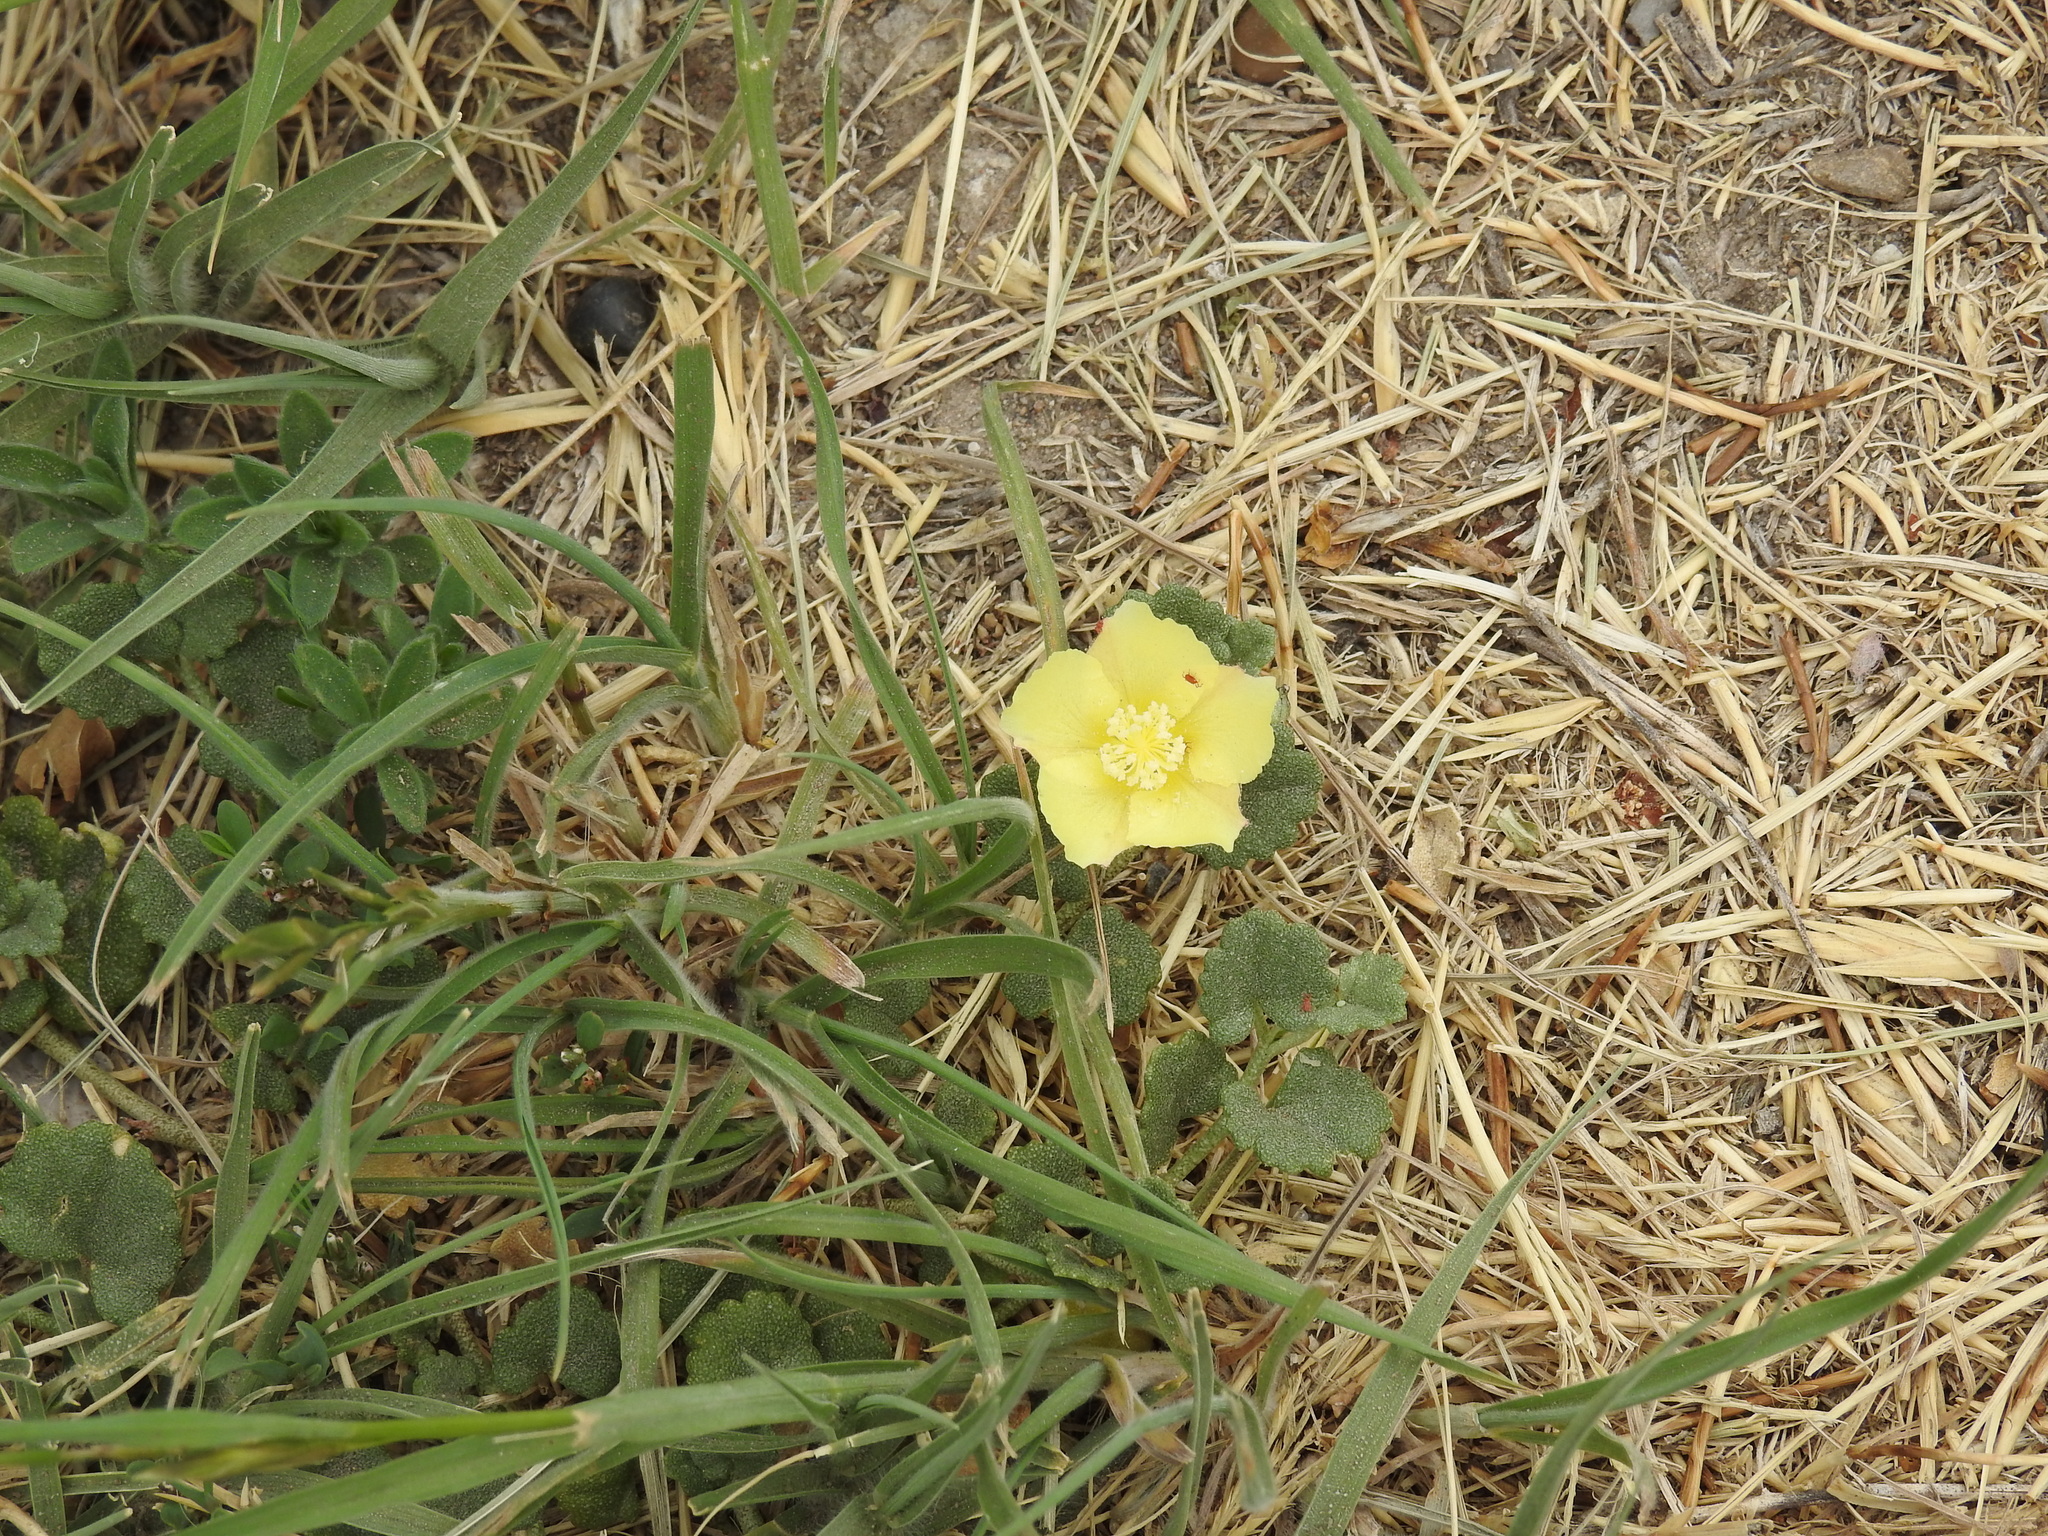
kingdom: Plantae
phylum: Tracheophyta
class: Magnoliopsida
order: Malvales
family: Malvaceae
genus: Malvella
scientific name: Malvella leprosa
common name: Alkali-mallow
